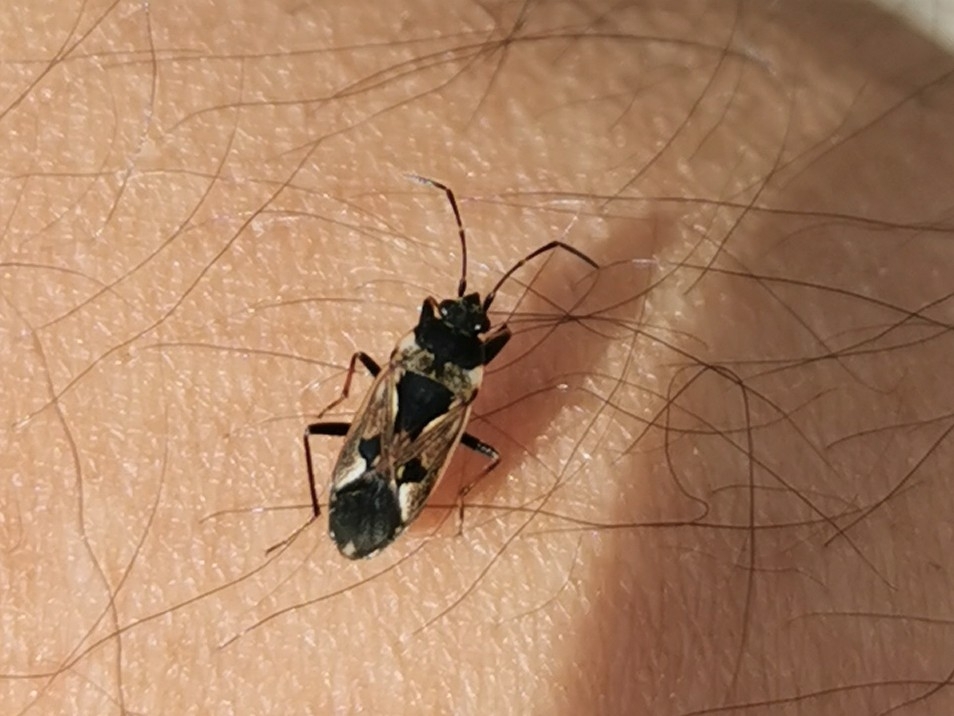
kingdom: Animalia
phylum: Arthropoda
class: Insecta
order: Hemiptera
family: Rhyparochromidae
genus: Rhyparochromus
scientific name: Rhyparochromus vulgaris
